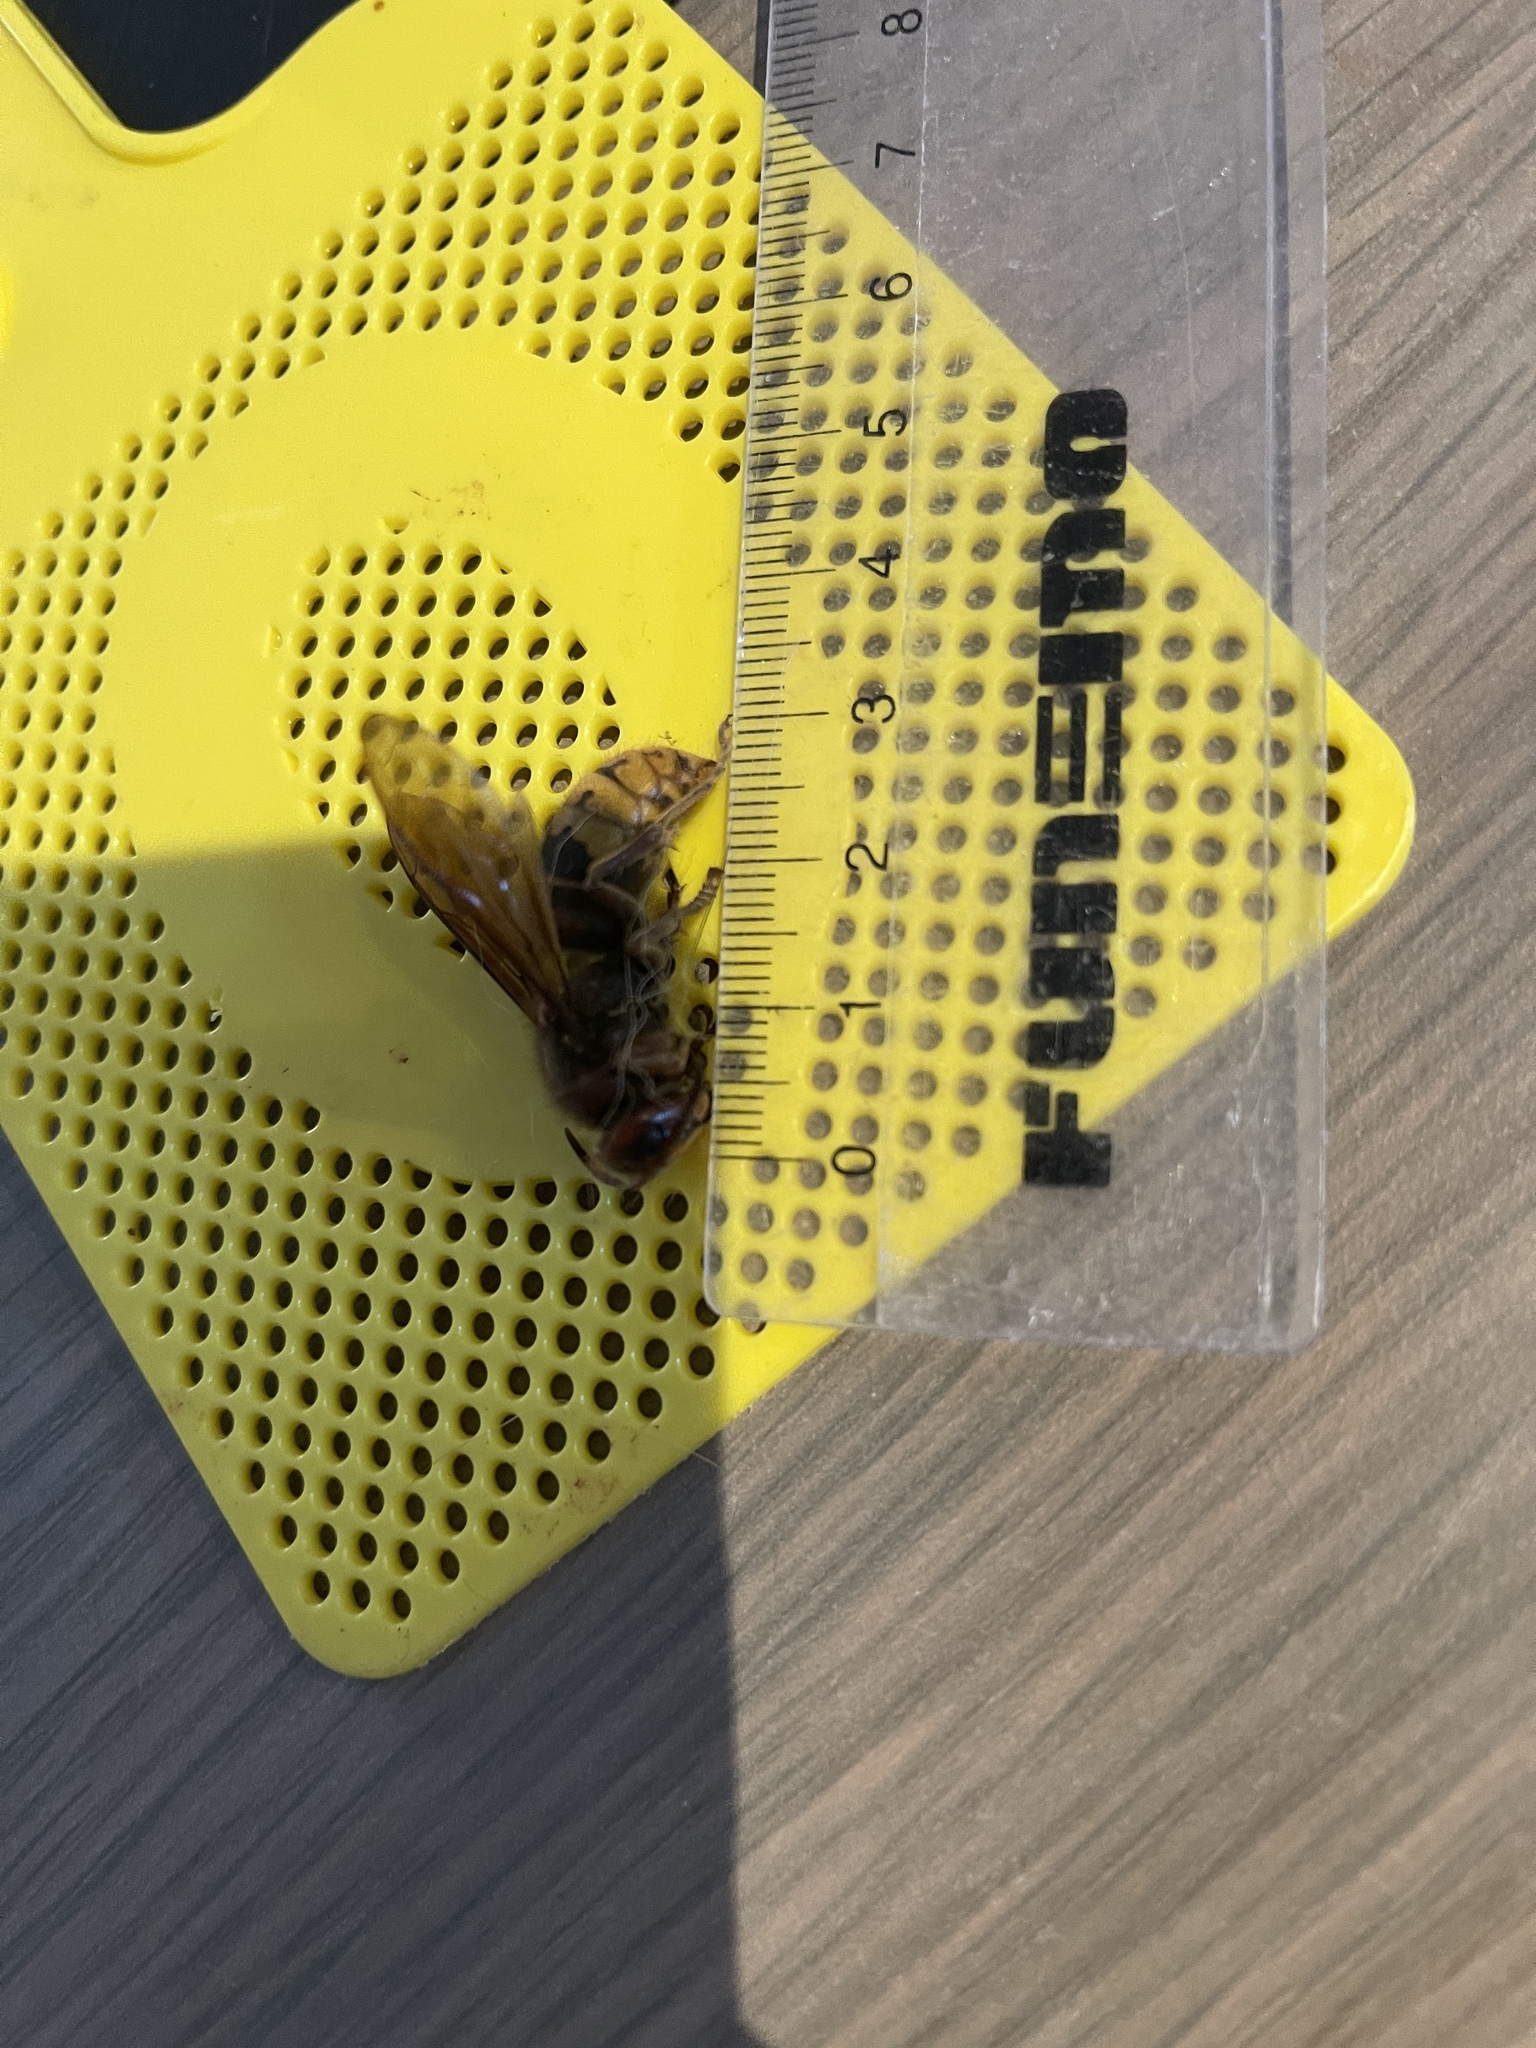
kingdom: Animalia
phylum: Arthropoda
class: Insecta
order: Hymenoptera
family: Vespidae
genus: Vespa
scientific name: Vespa crabro
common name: Hornet
